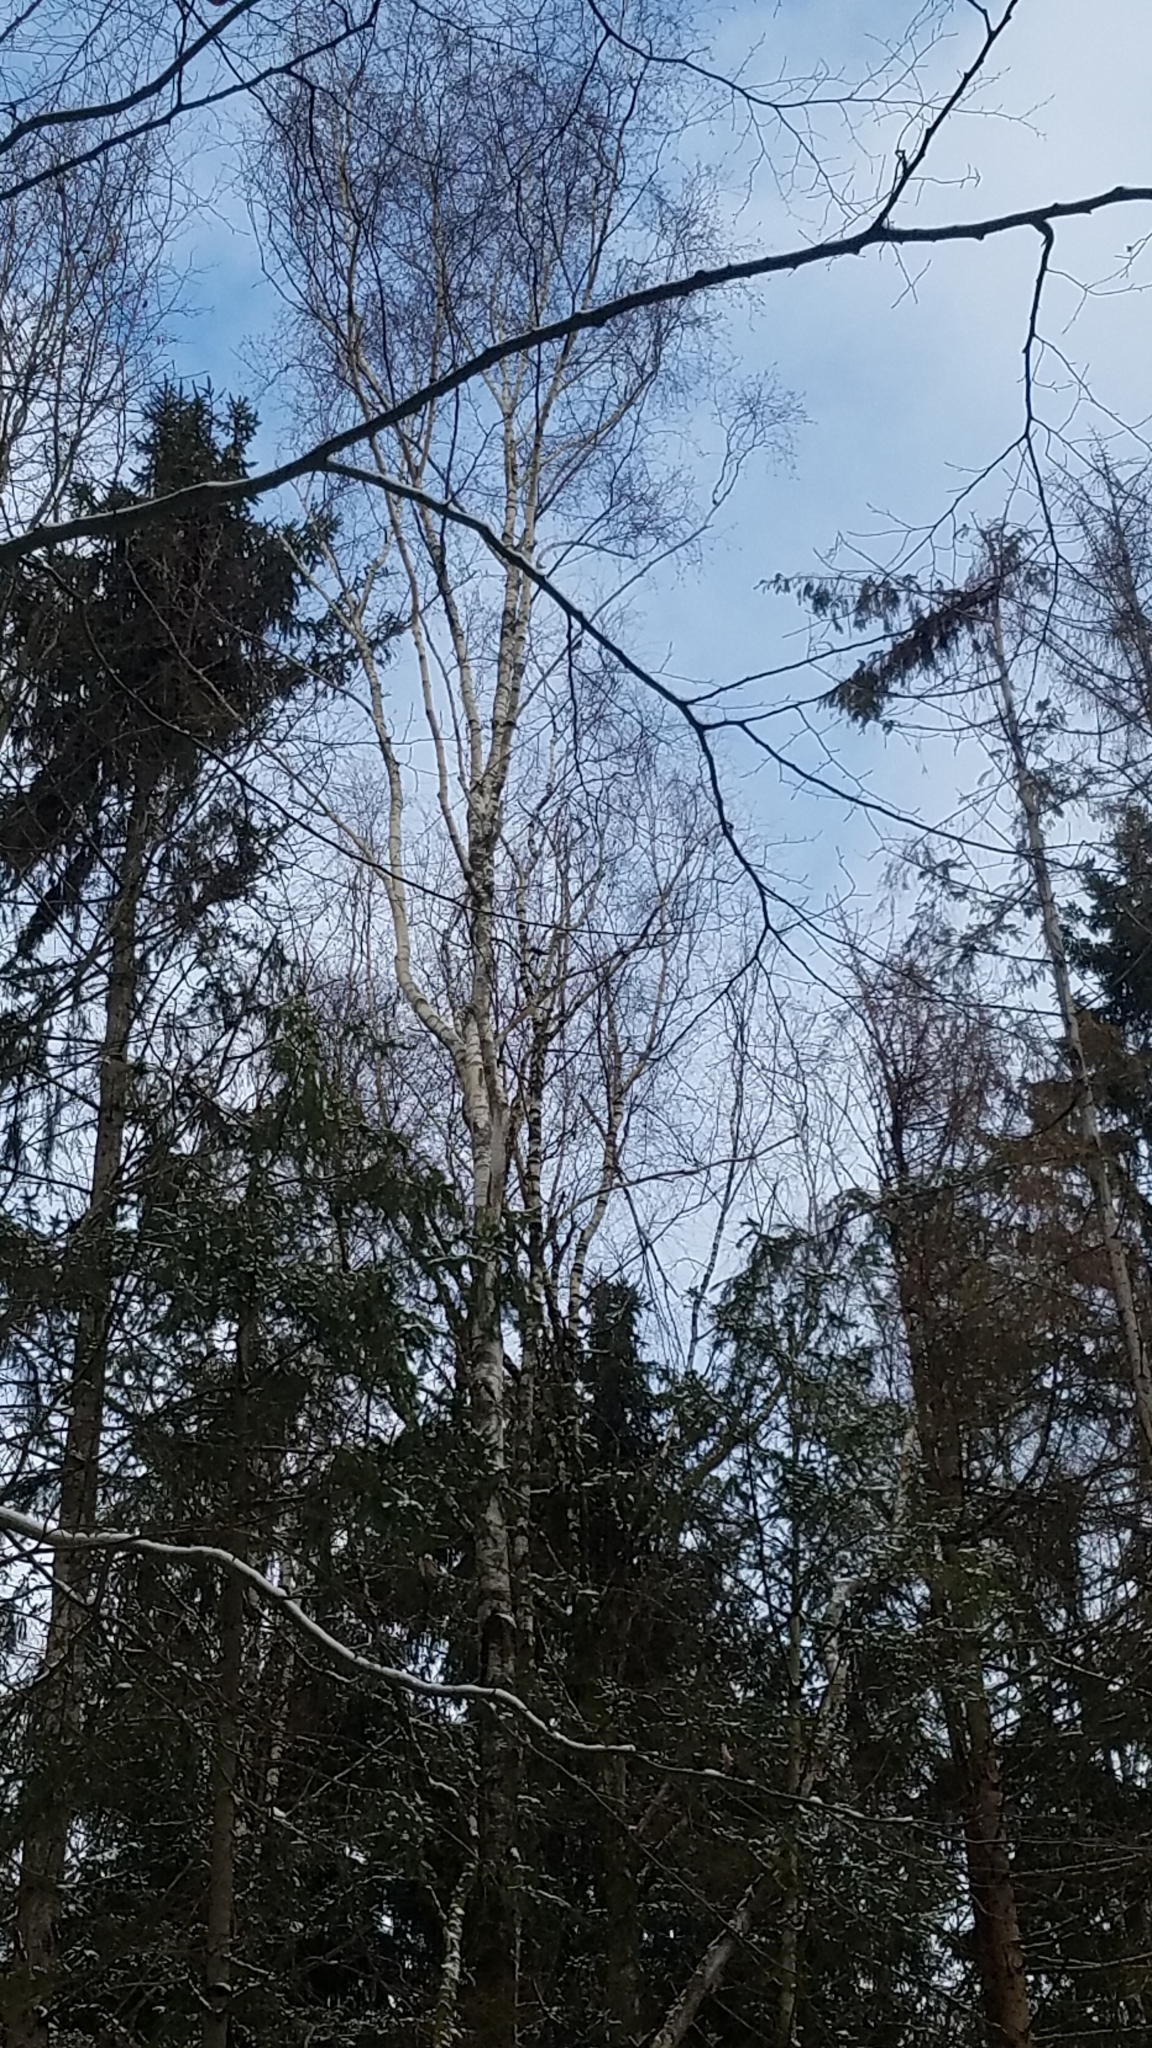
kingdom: Plantae
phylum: Tracheophyta
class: Magnoliopsida
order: Fagales
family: Betulaceae
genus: Betula
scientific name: Betula pendula
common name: Silver birch
